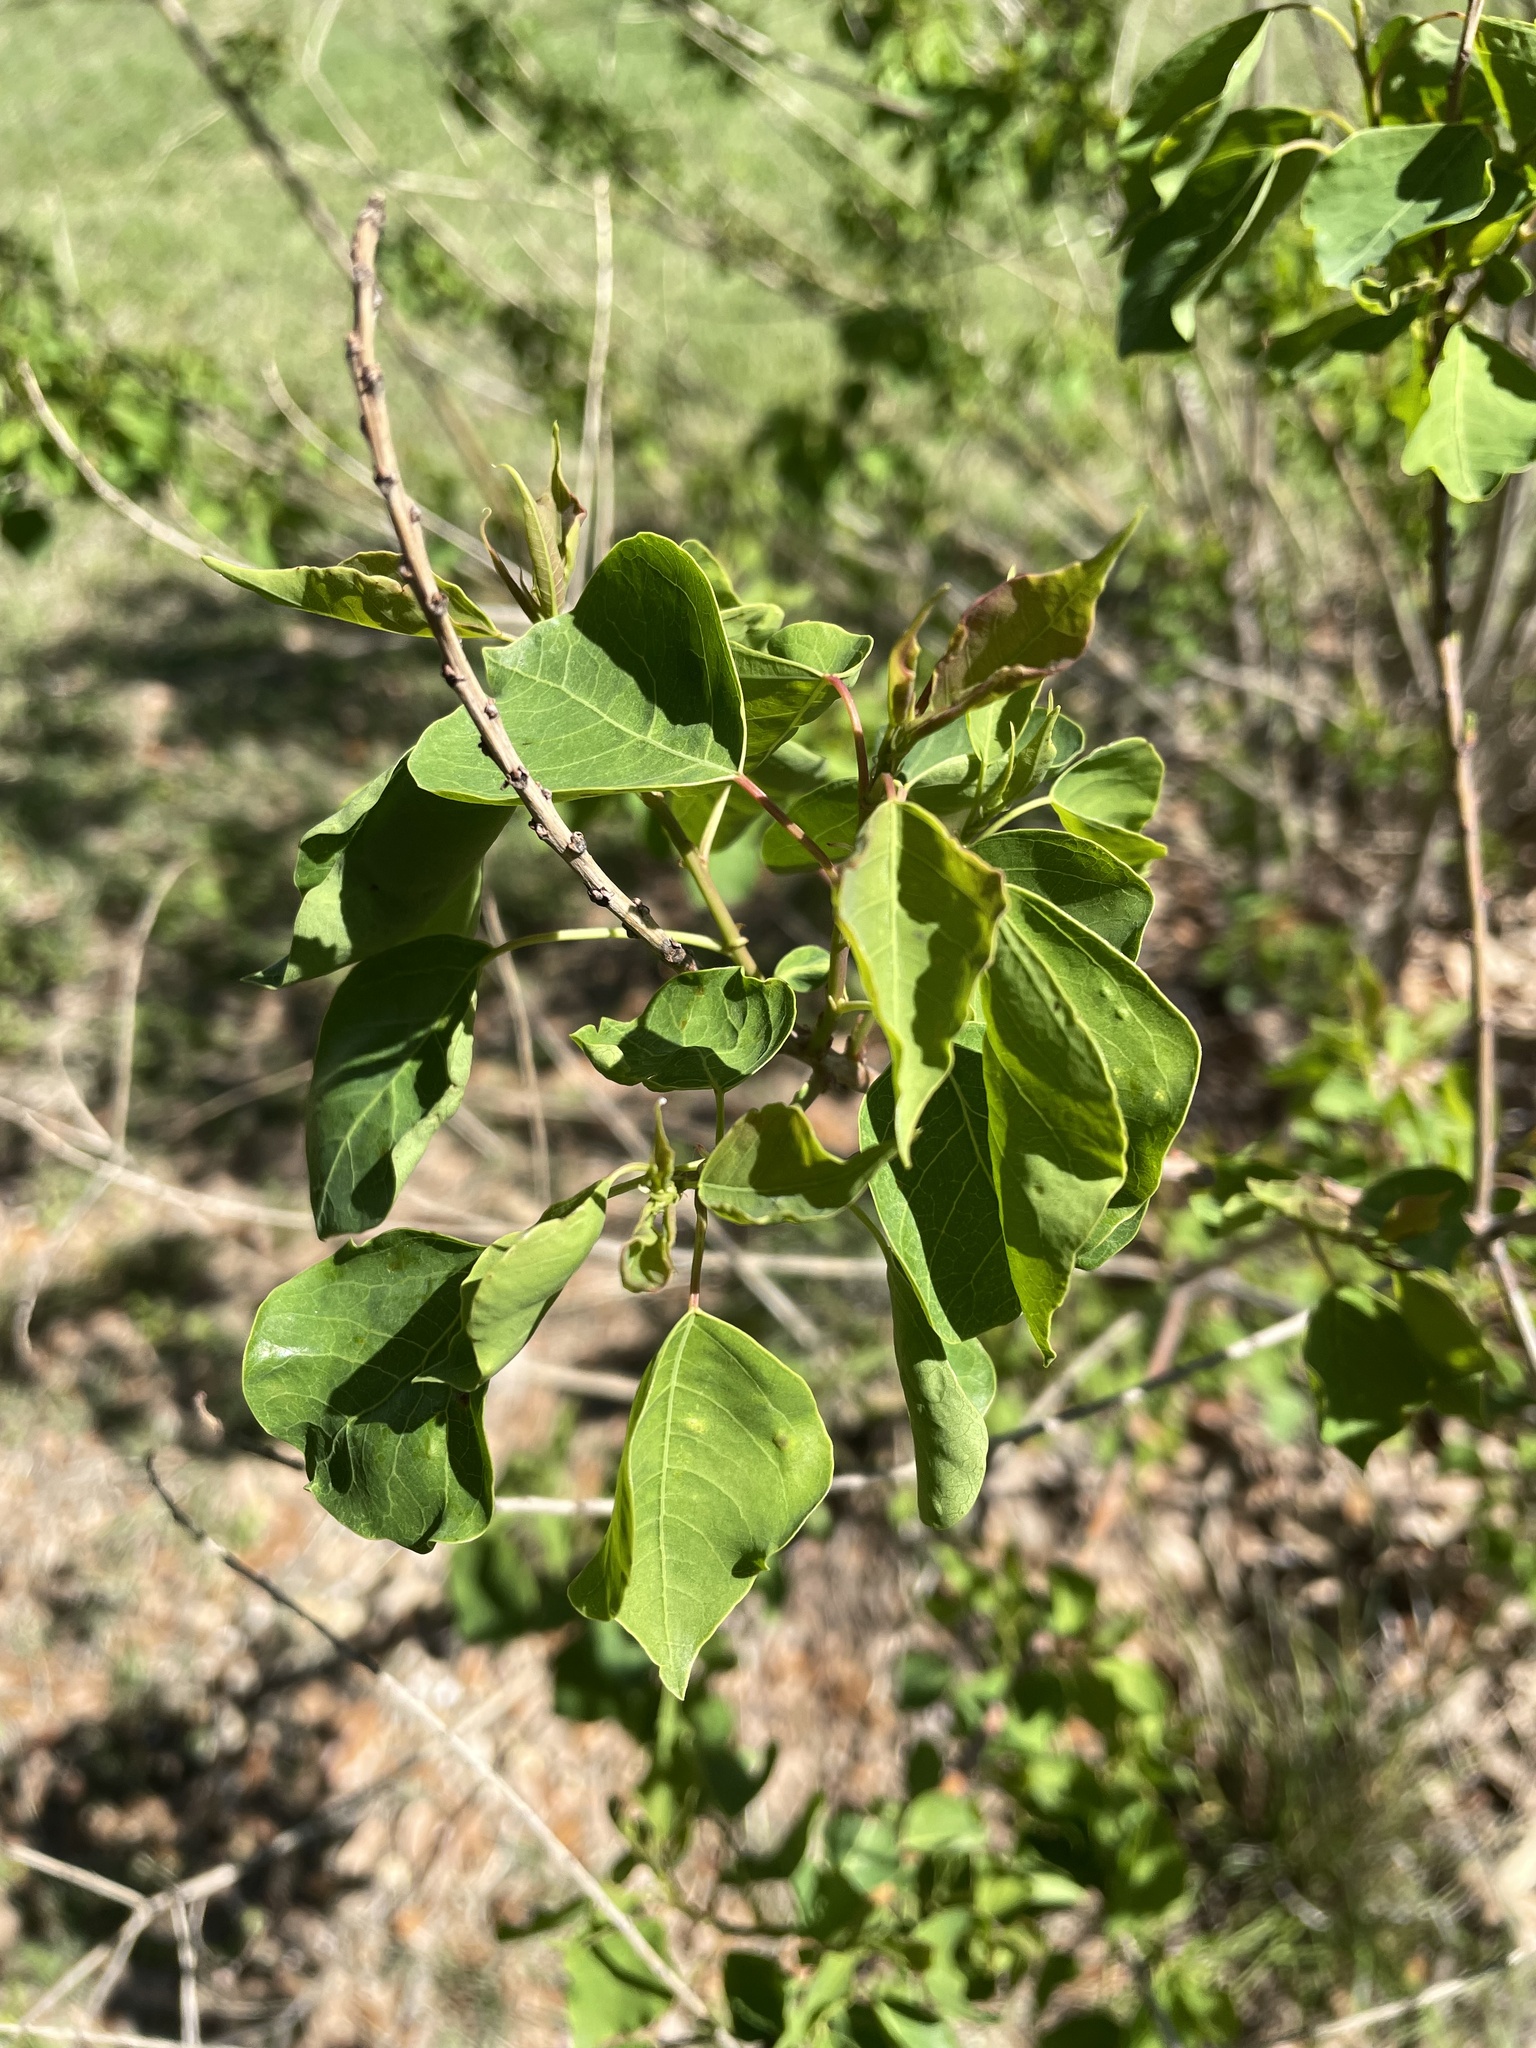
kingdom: Plantae
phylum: Tracheophyta
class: Magnoliopsida
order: Malpighiales
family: Euphorbiaceae
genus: Triadica
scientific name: Triadica sebifera
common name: Chinese tallow
